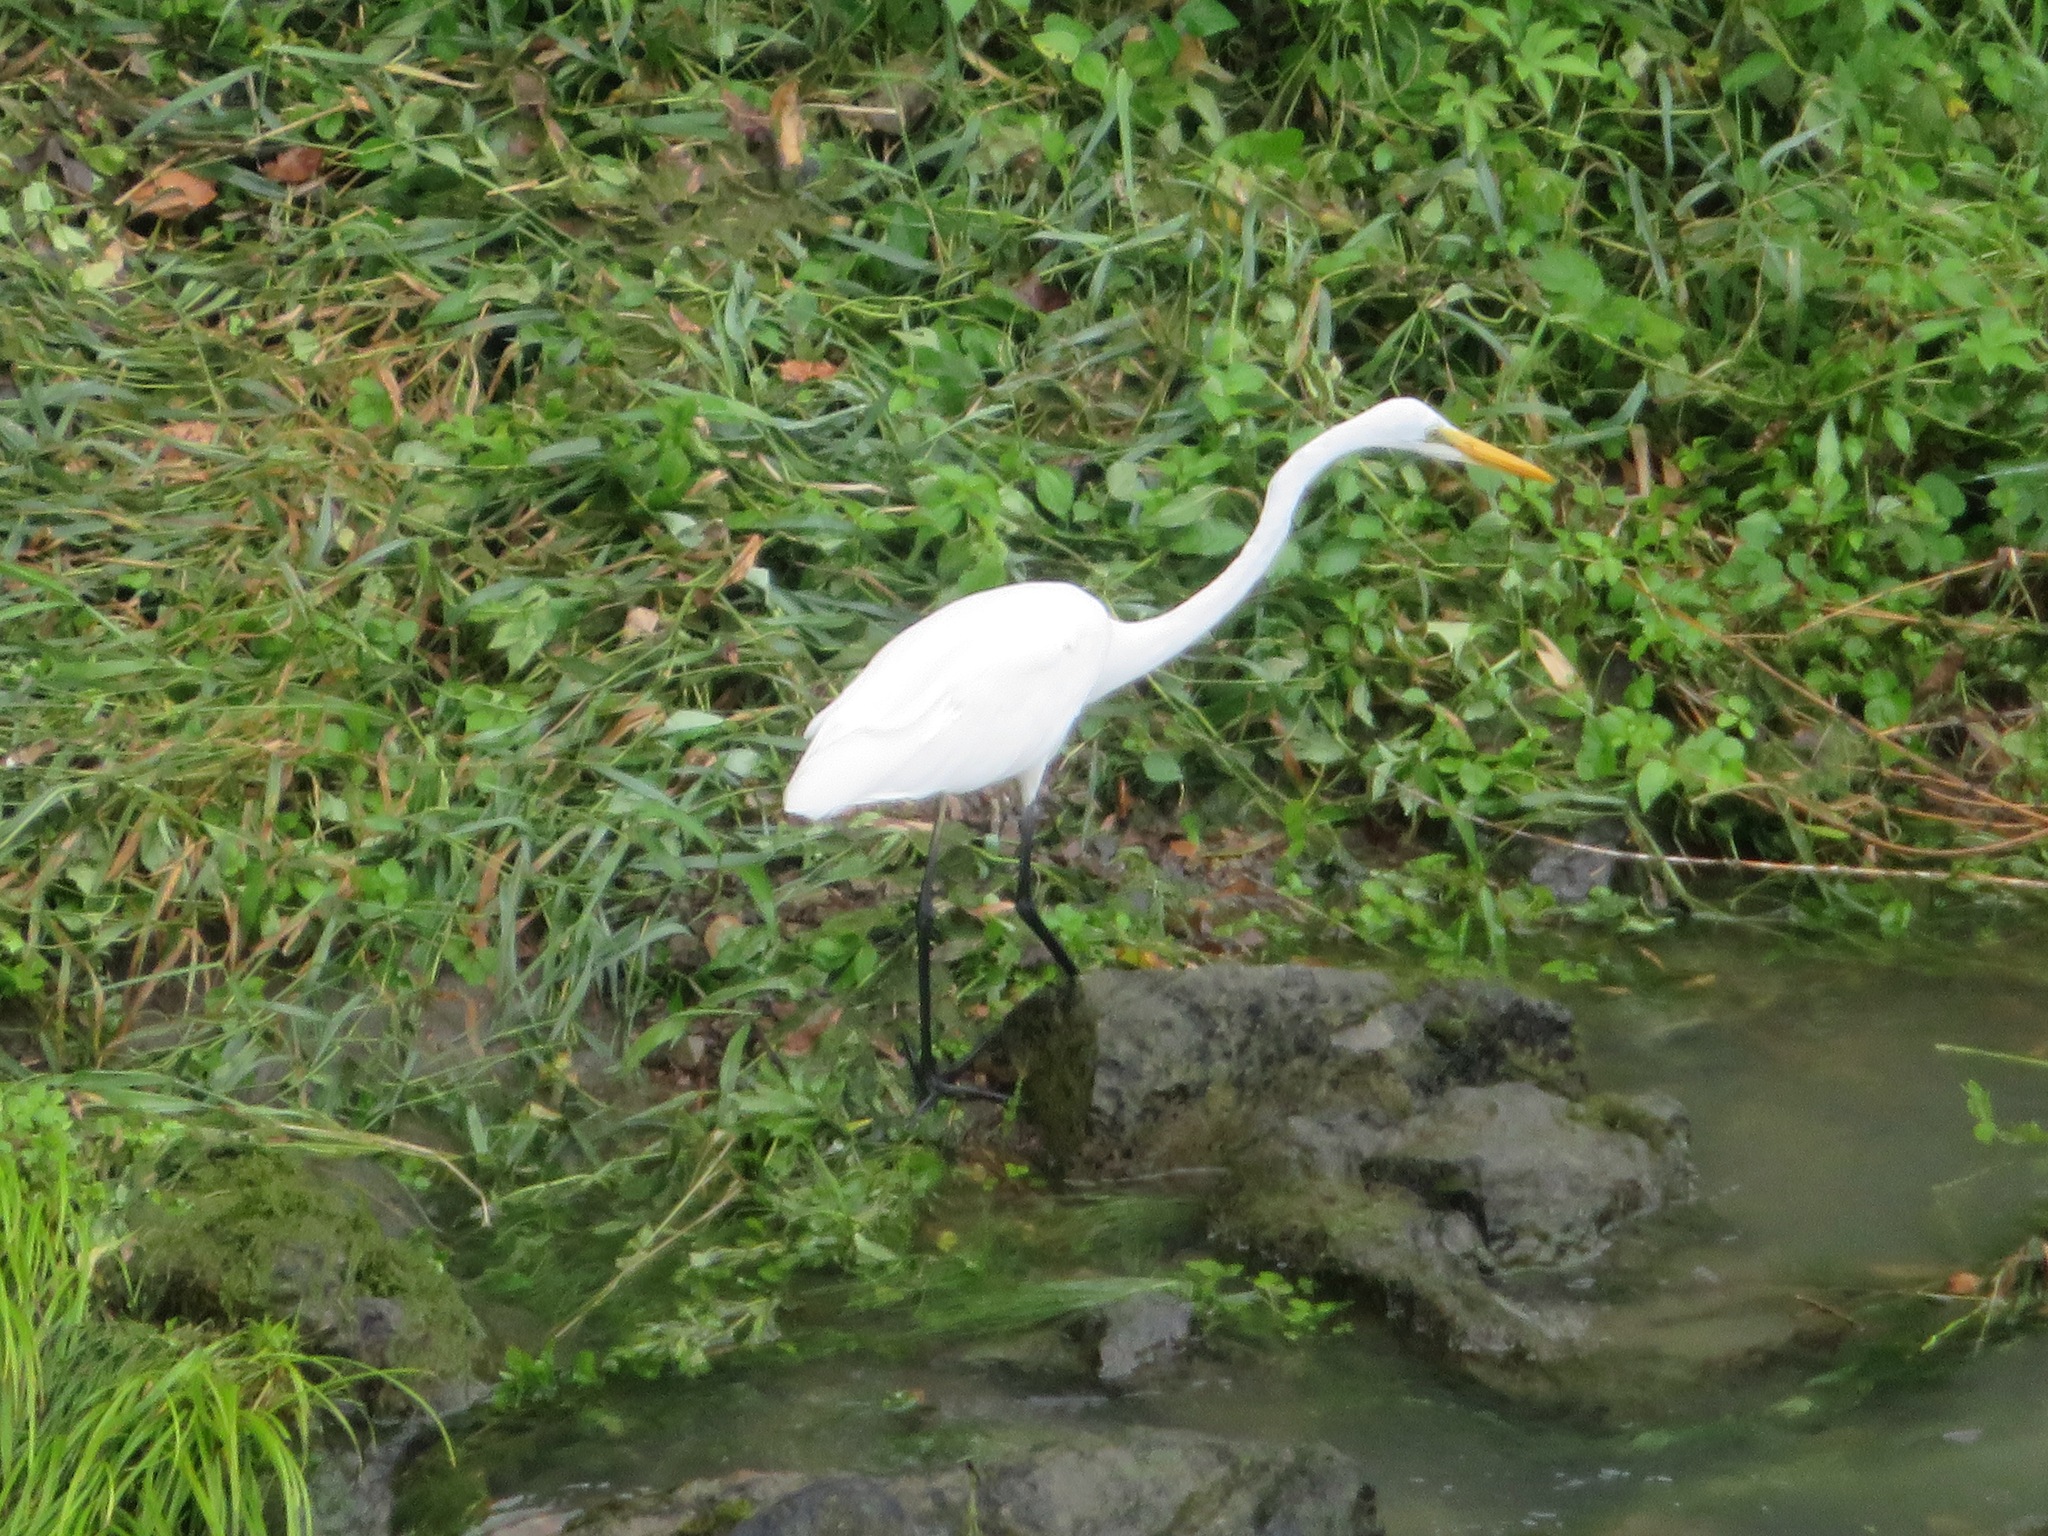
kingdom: Animalia
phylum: Chordata
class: Aves
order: Pelecaniformes
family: Ardeidae
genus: Ardea
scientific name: Ardea alba
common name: Great egret
